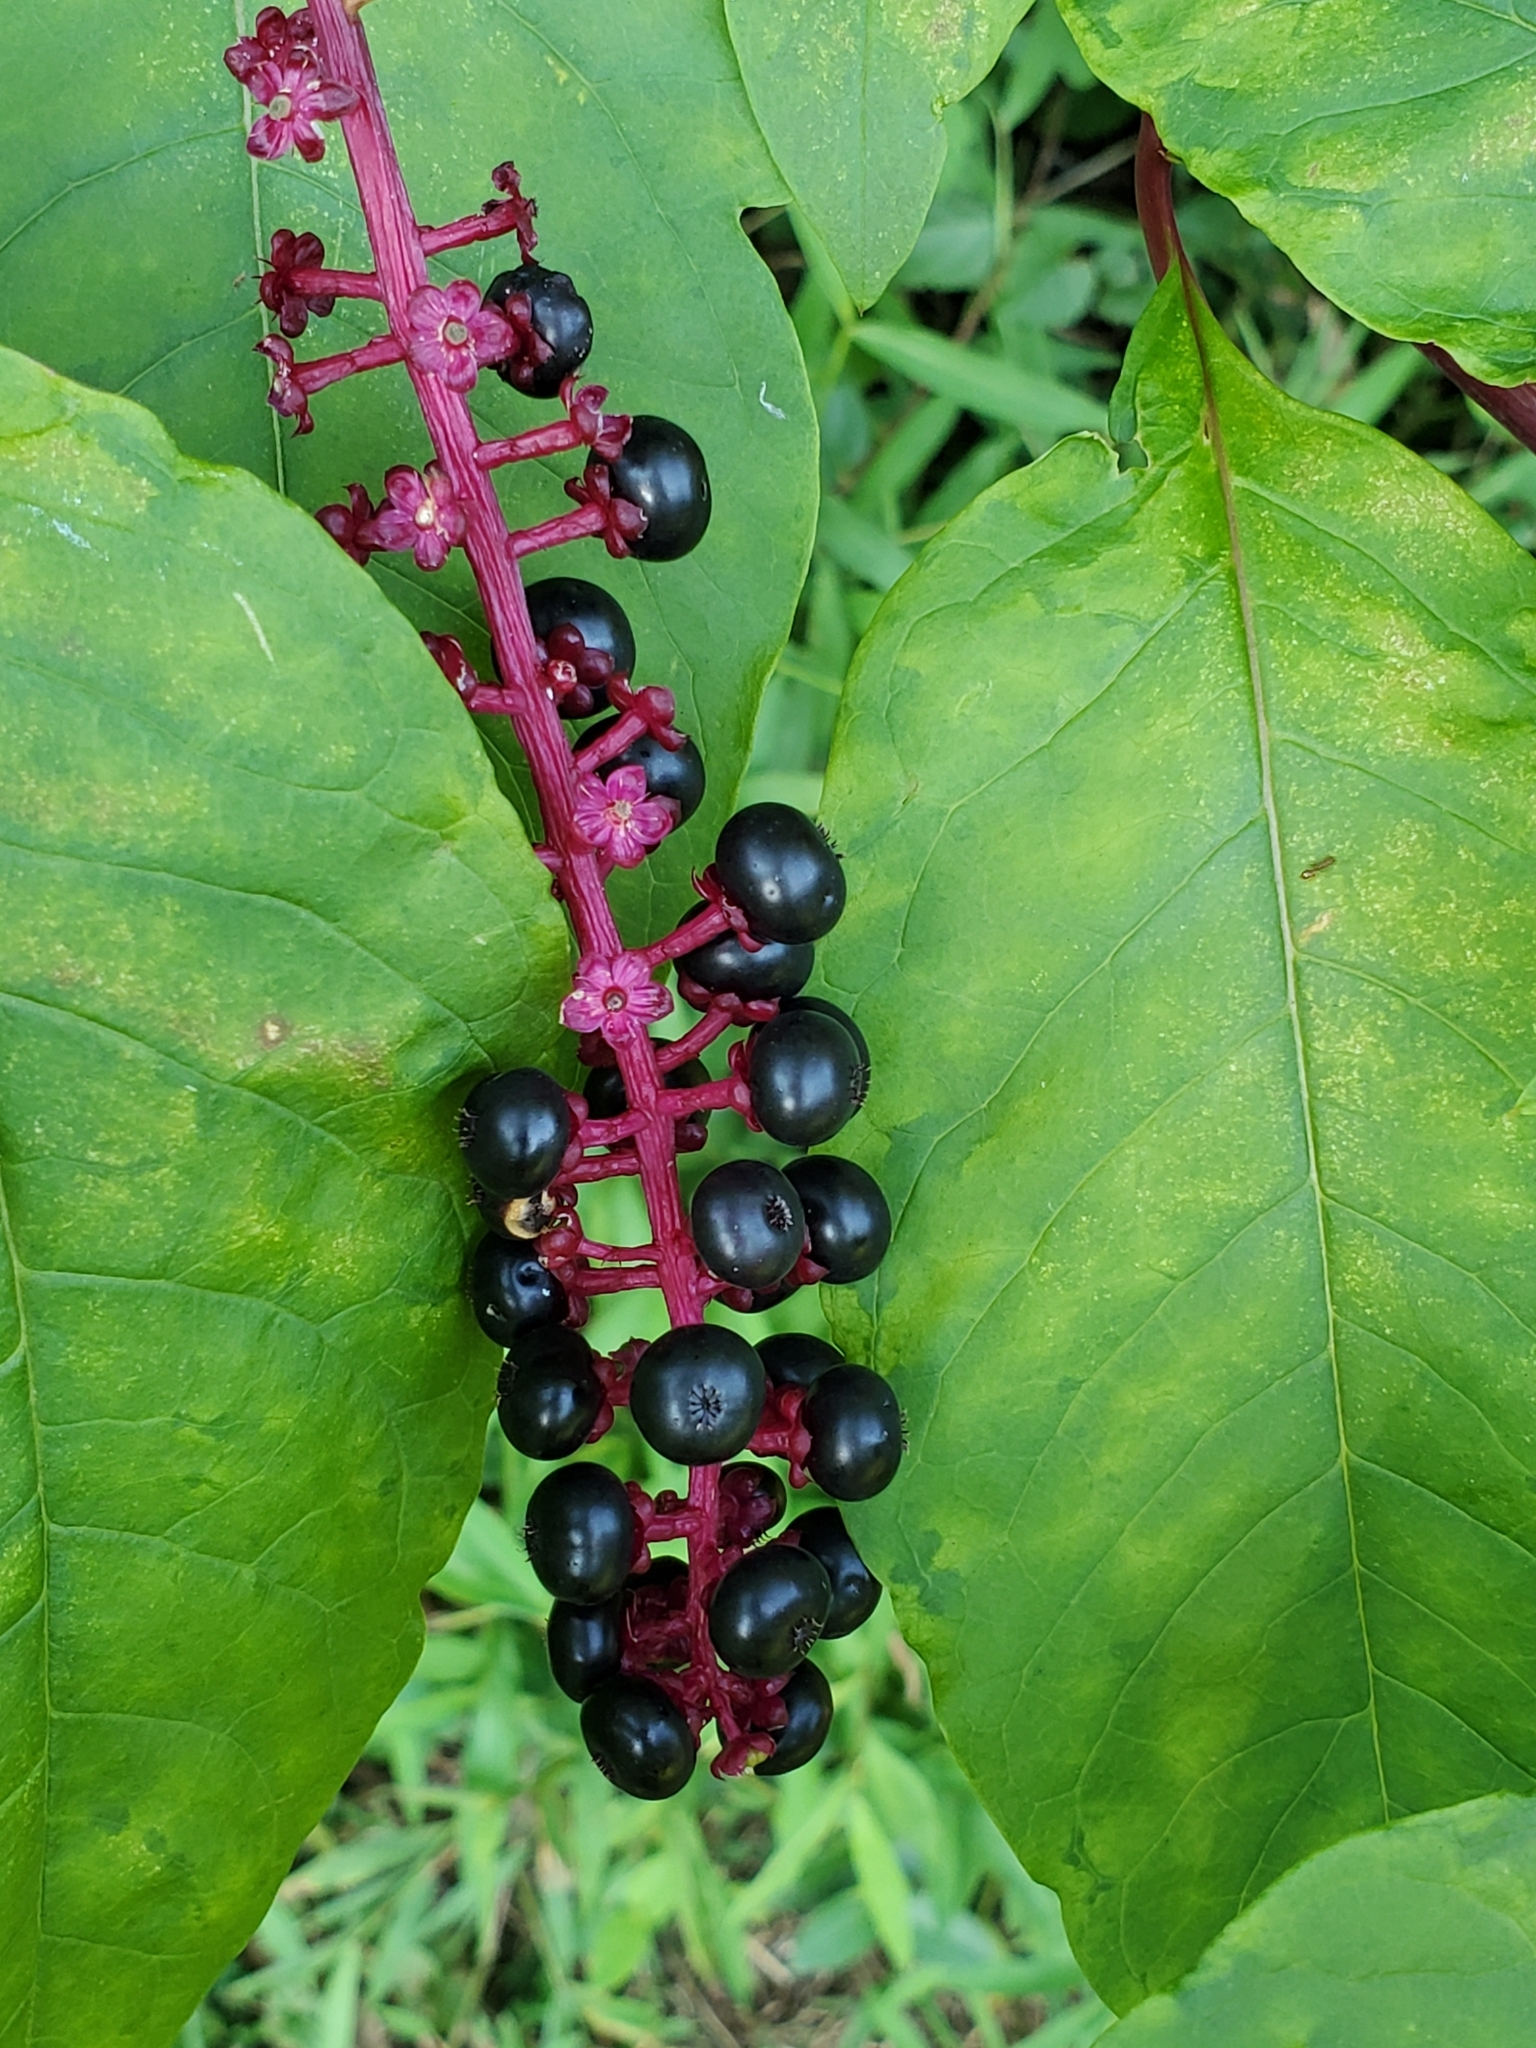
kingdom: Plantae
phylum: Tracheophyta
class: Magnoliopsida
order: Caryophyllales
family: Phytolaccaceae
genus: Phytolacca
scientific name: Phytolacca americana
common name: American pokeweed
